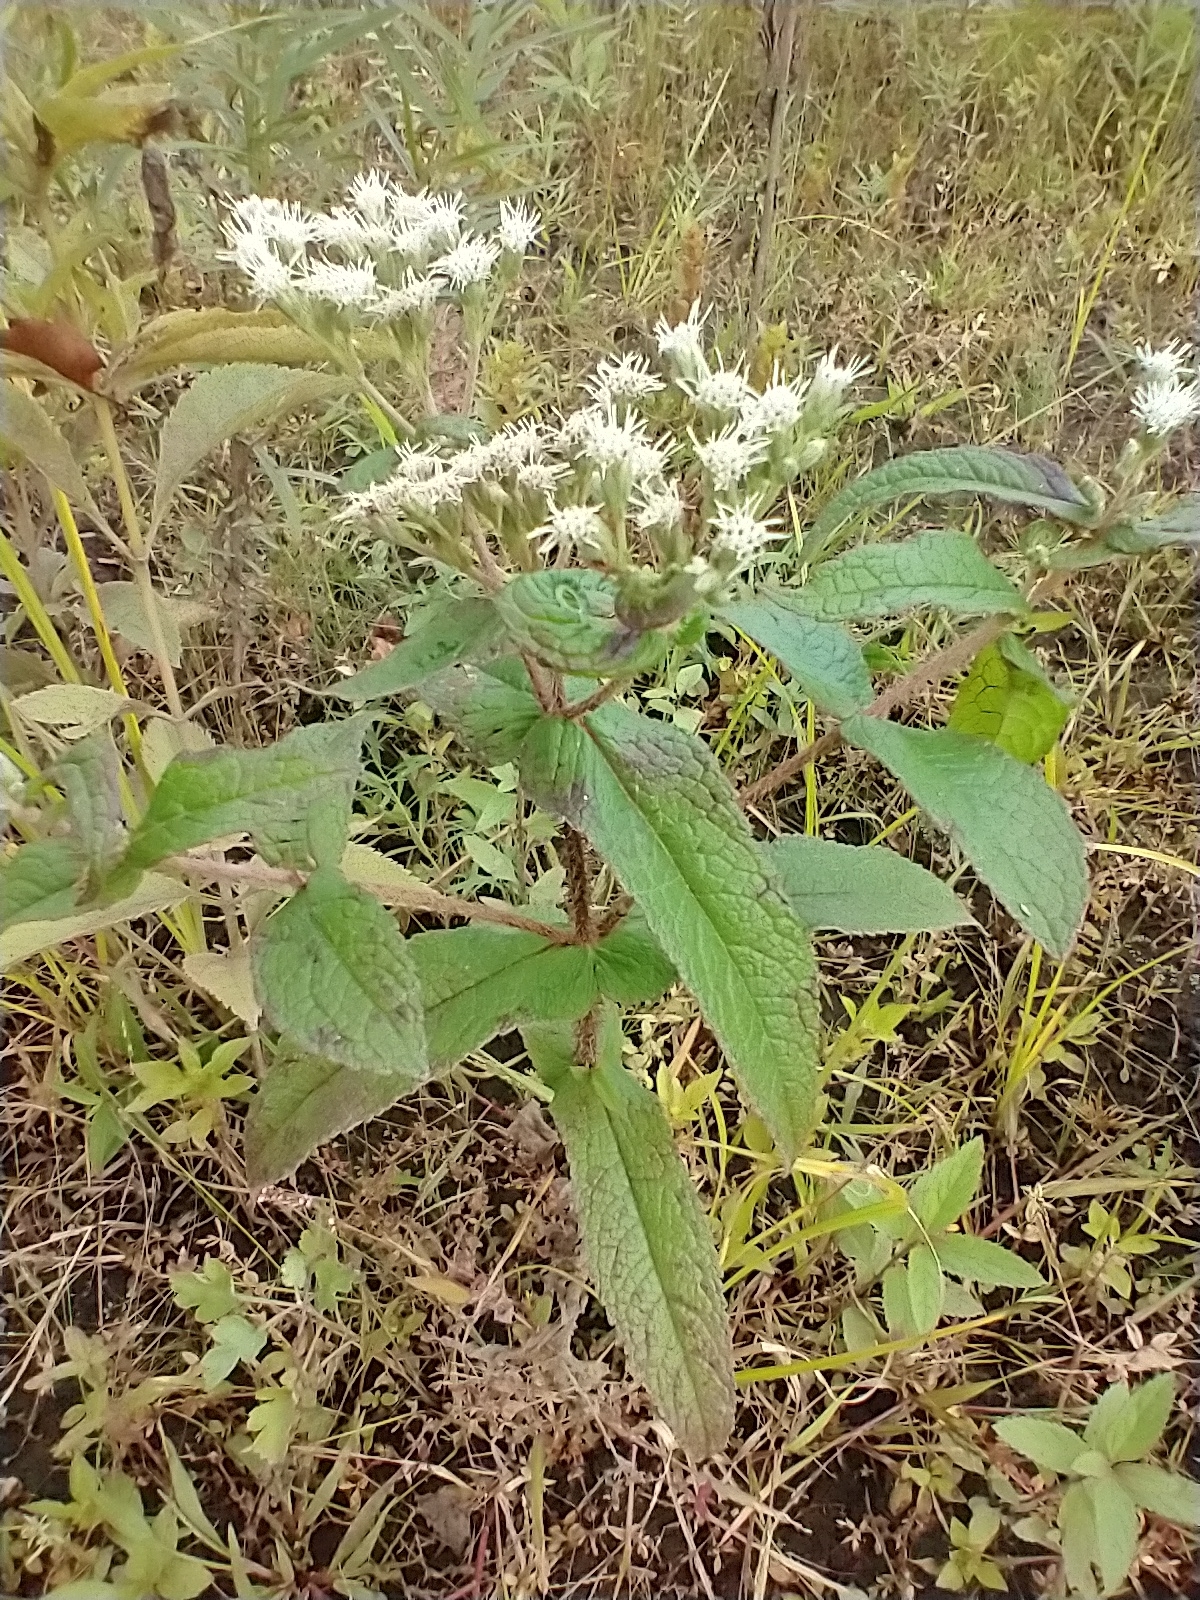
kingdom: Plantae
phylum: Tracheophyta
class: Magnoliopsida
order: Asterales
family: Asteraceae
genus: Eupatorium
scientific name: Eupatorium perfoliatum
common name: Boneset
